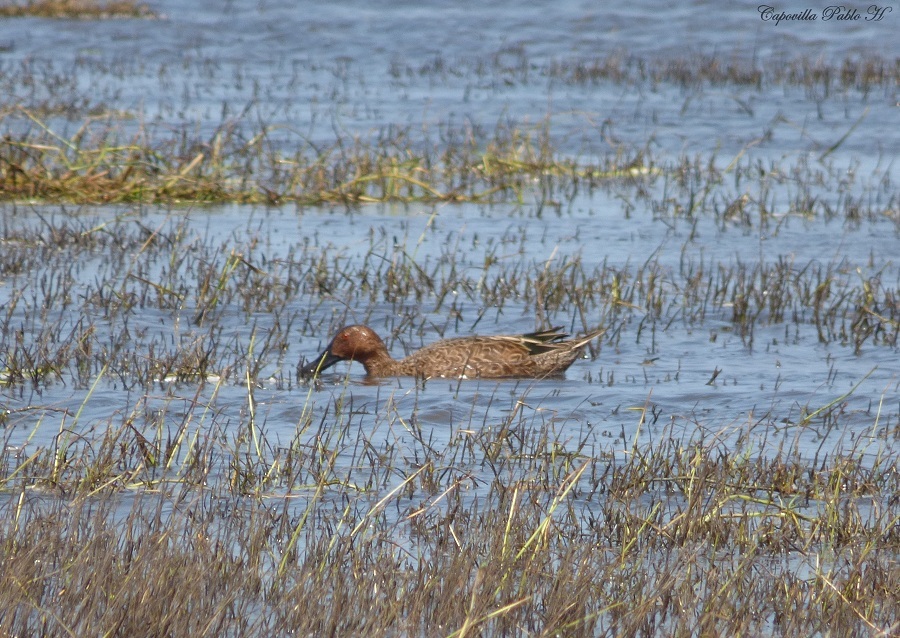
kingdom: Animalia
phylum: Chordata
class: Aves
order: Anseriformes
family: Anatidae
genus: Spatula
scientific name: Spatula cyanoptera
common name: Cinnamon teal
